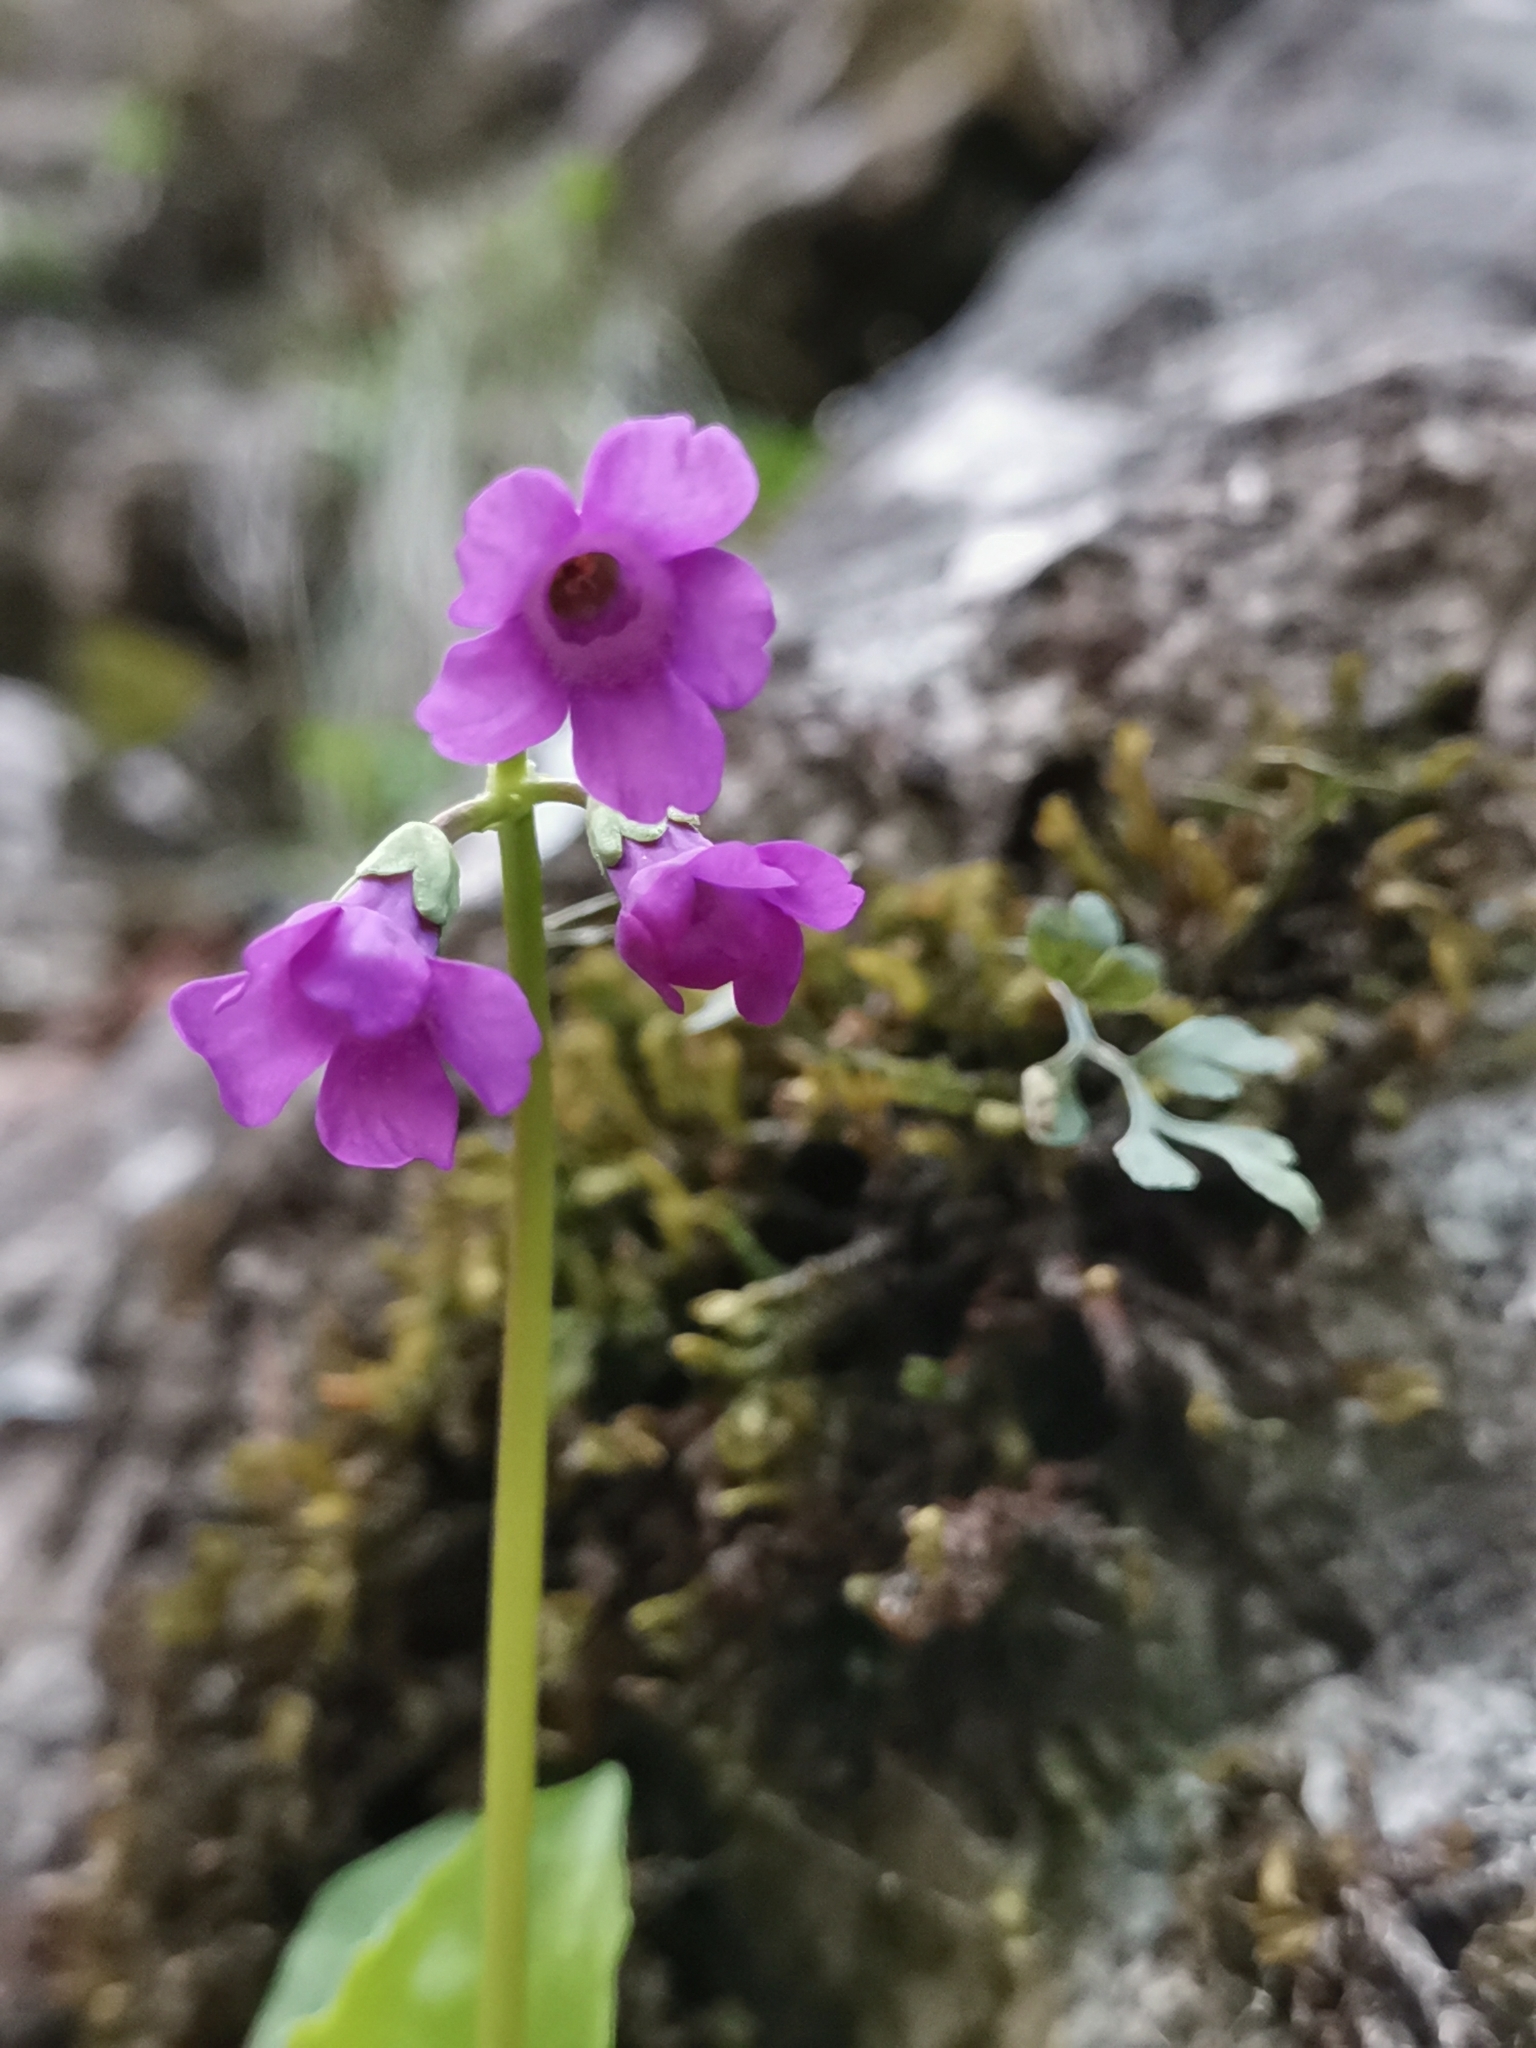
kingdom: Plantae
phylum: Tracheophyta
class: Magnoliopsida
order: Ericales
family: Primulaceae
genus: Primula
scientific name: Primula carniolica
